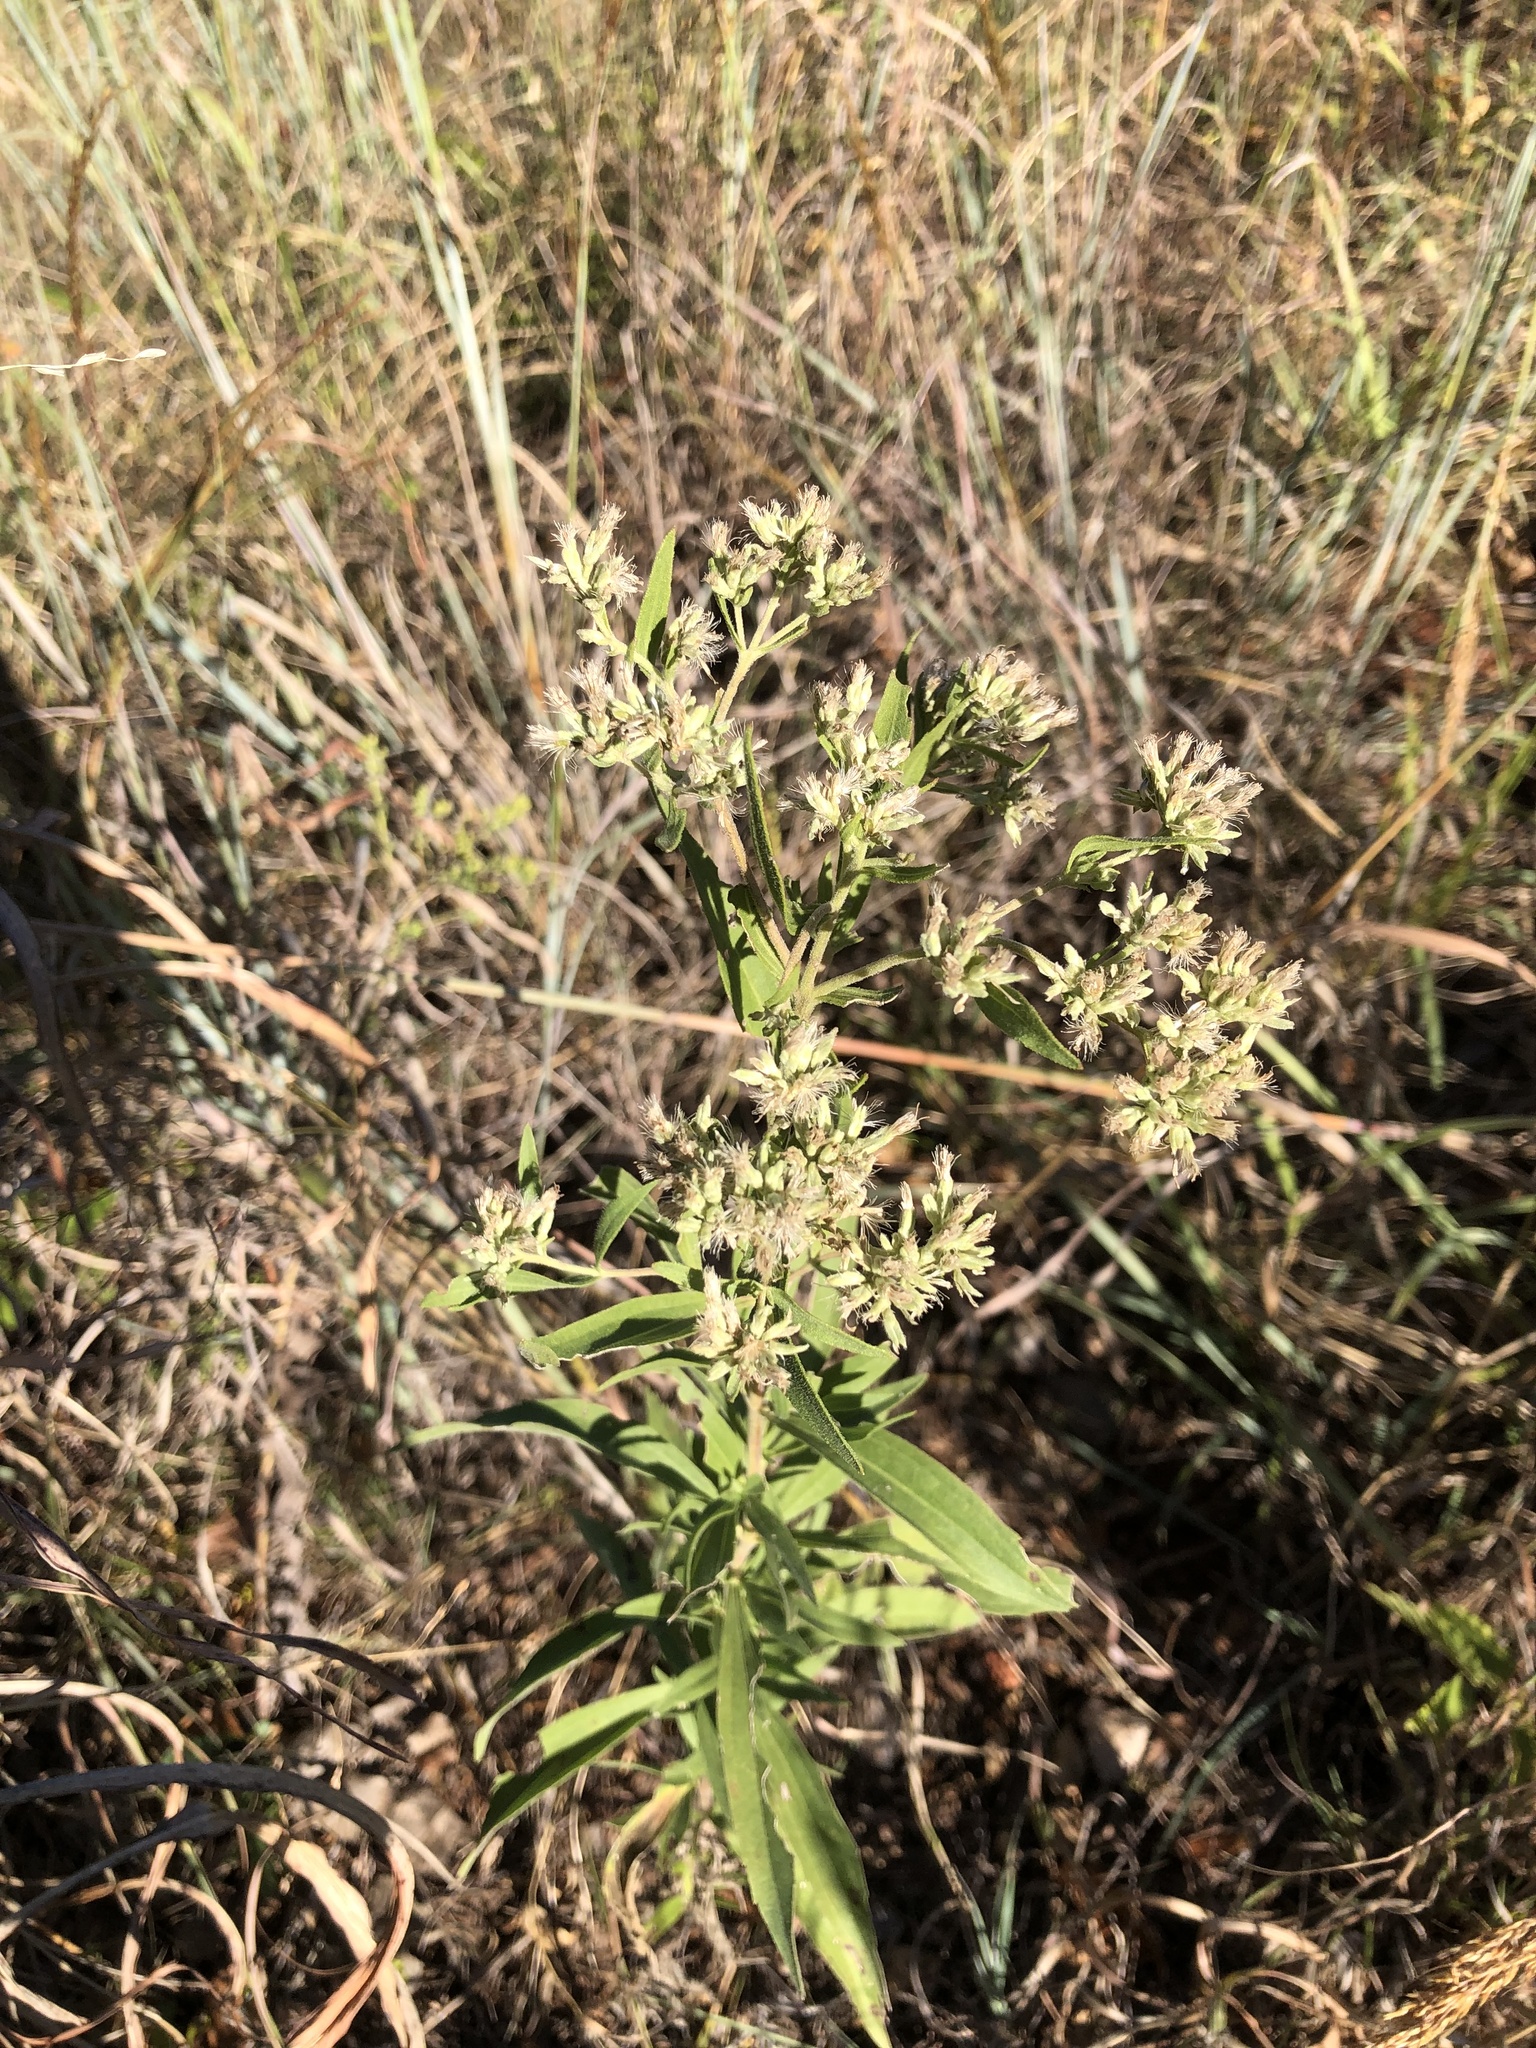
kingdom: Plantae
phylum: Tracheophyta
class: Magnoliopsida
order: Asterales
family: Asteraceae
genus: Eupatorium
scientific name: Eupatorium altissimum
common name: Tall thoroughwort
